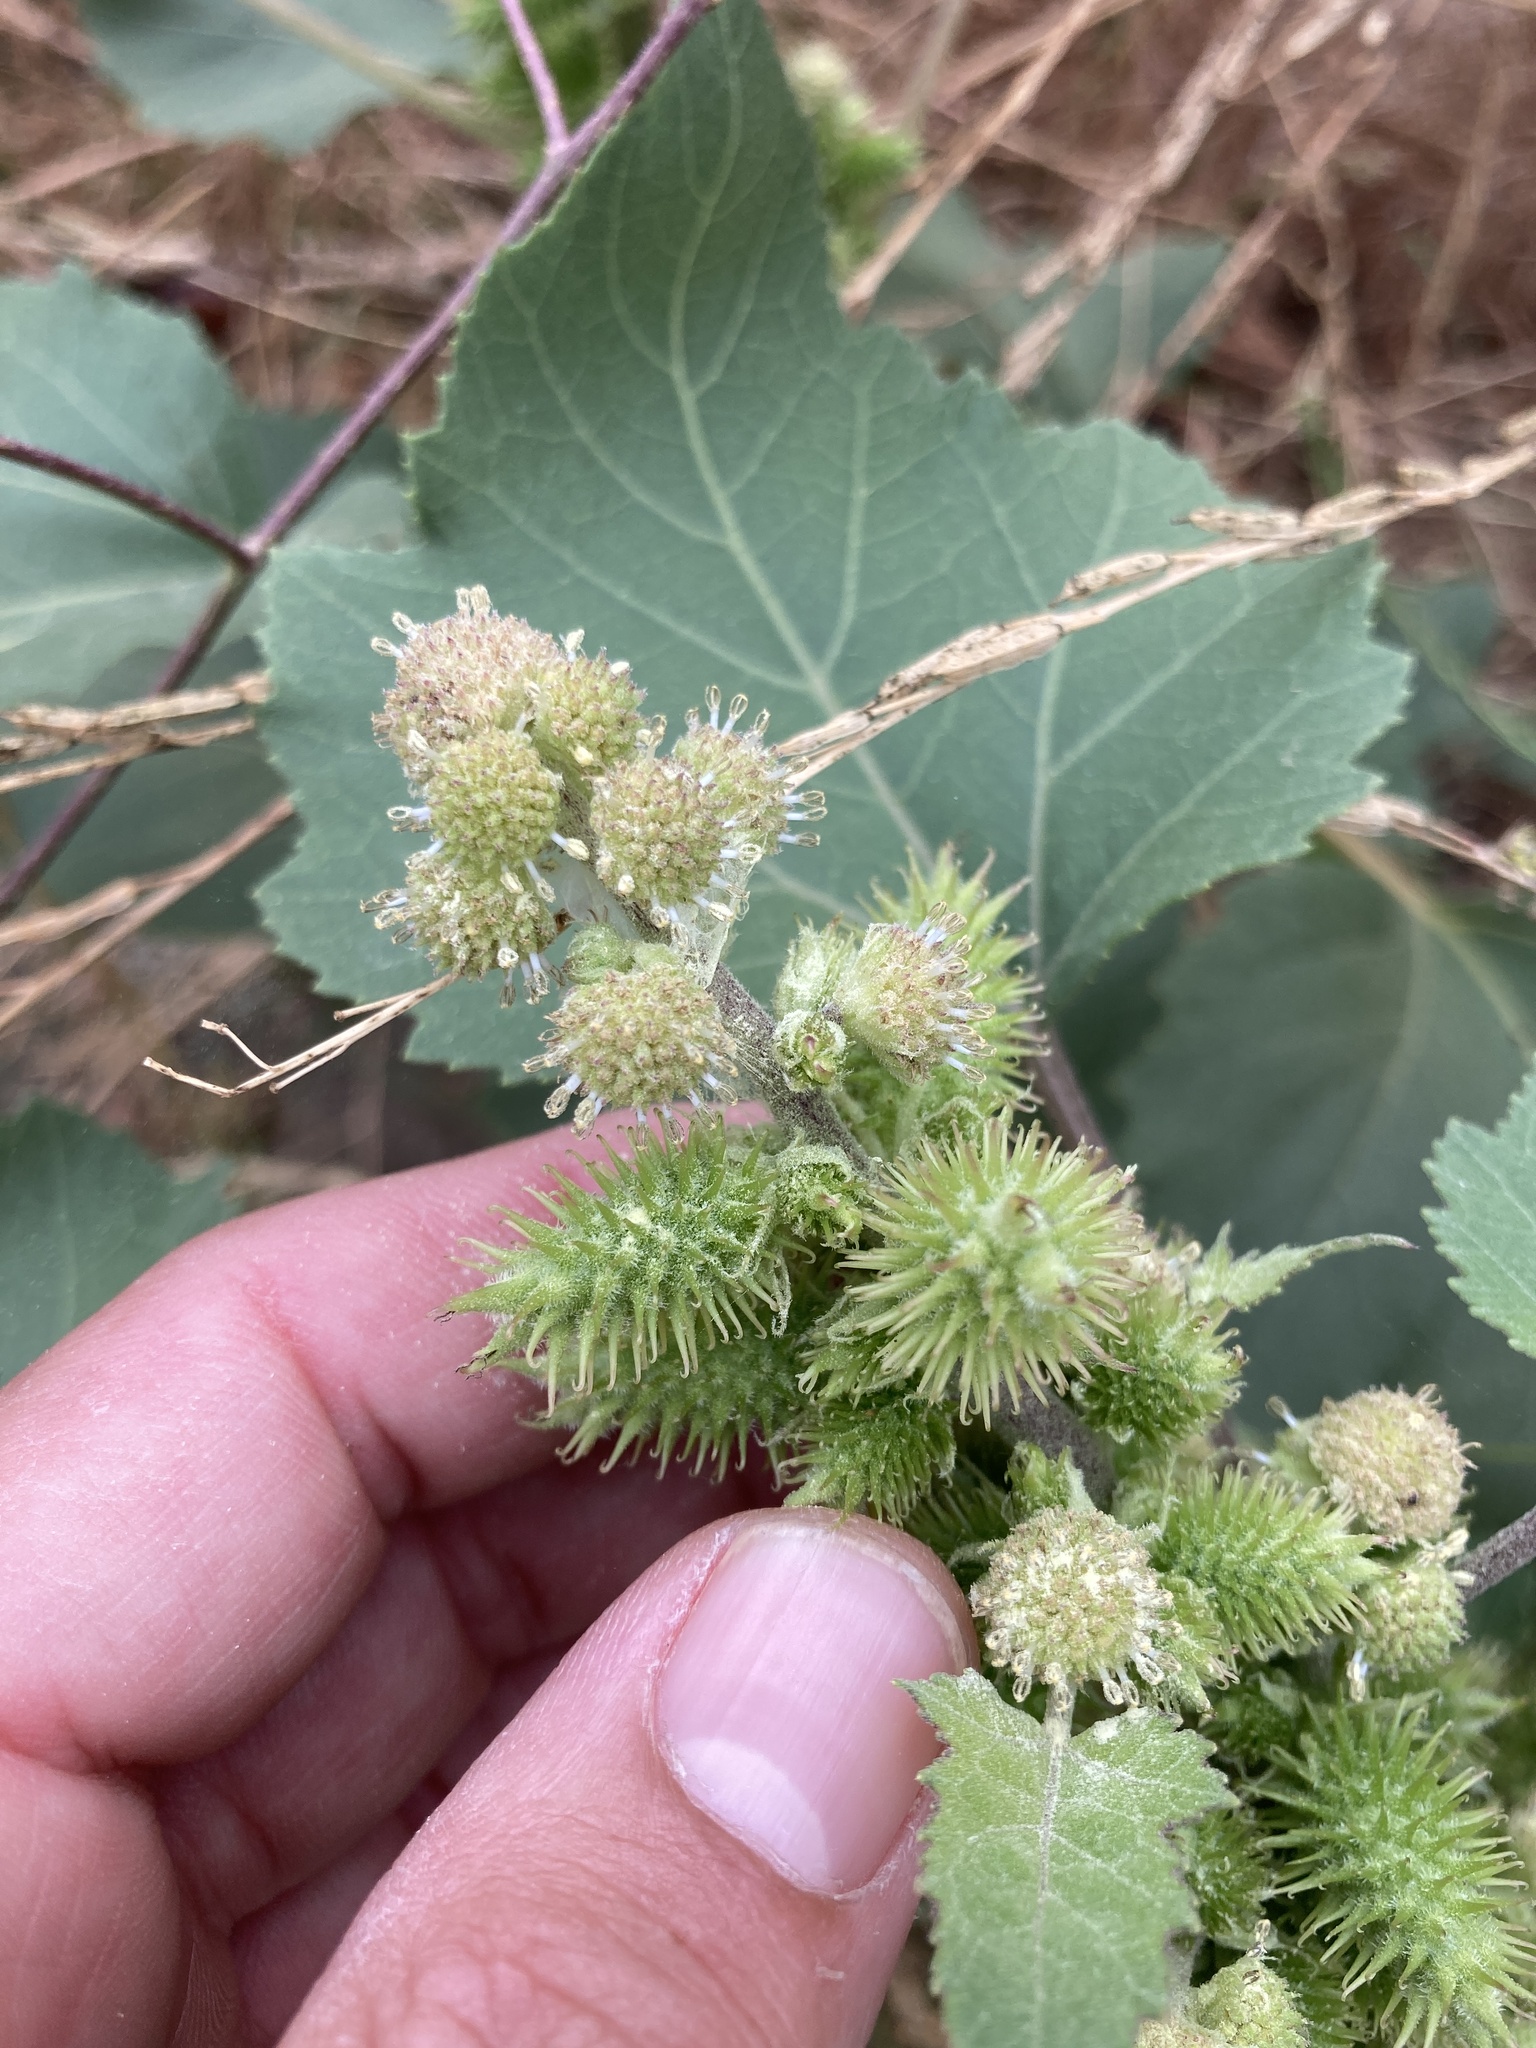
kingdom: Plantae
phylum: Tracheophyta
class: Magnoliopsida
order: Asterales
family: Asteraceae
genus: Xanthium
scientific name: Xanthium strumarium
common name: Rough cocklebur
